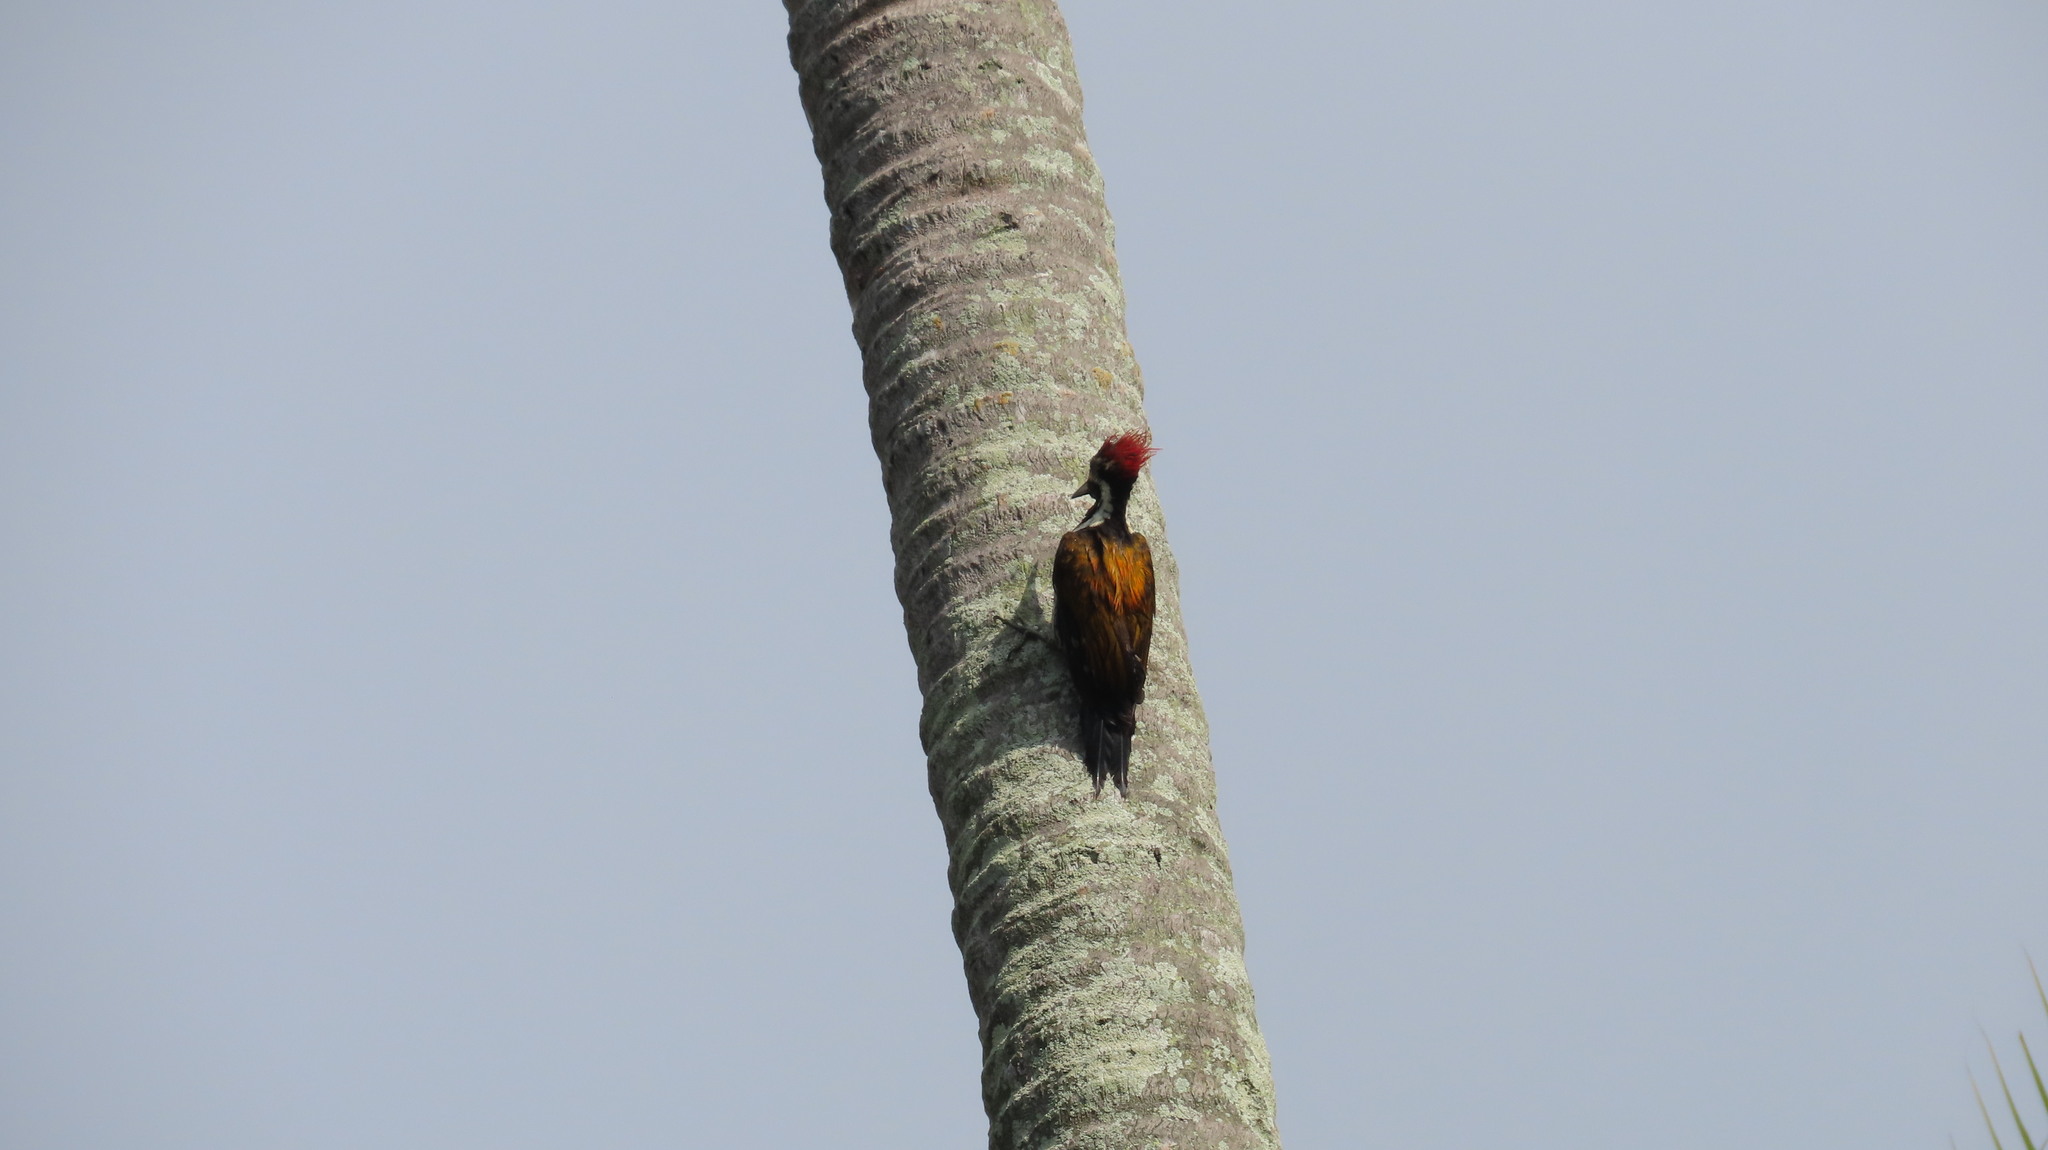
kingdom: Animalia
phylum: Chordata
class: Aves
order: Piciformes
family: Picidae
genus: Dinopium
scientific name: Dinopium benghalense
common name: Black-rumped flameback
